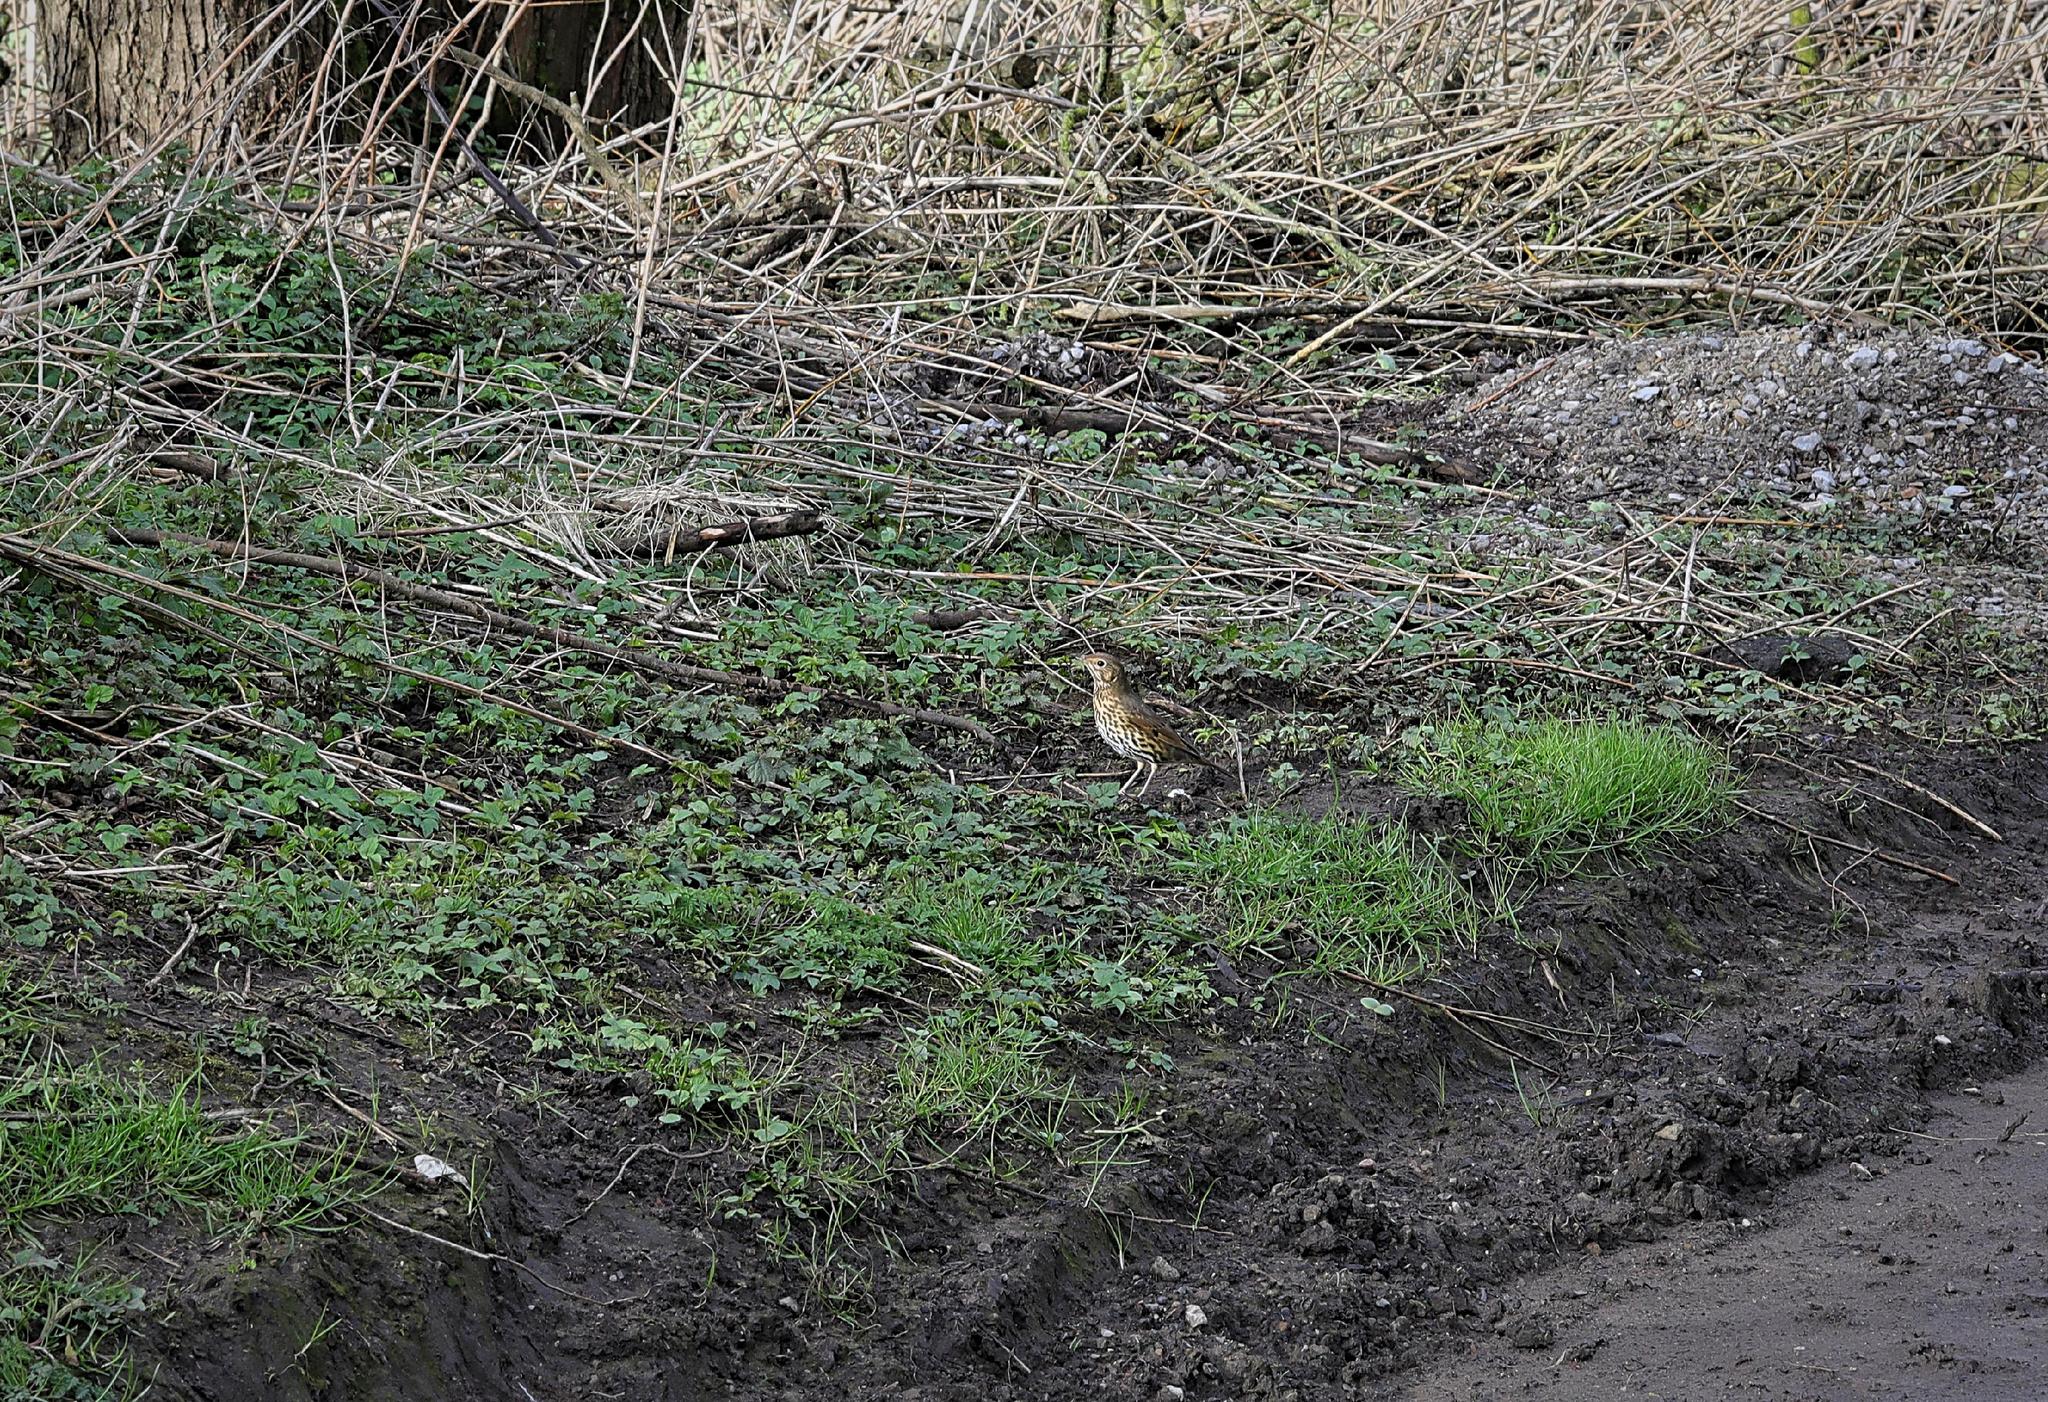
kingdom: Animalia
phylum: Chordata
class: Aves
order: Passeriformes
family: Turdidae
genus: Turdus
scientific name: Turdus philomelos
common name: Song thrush
